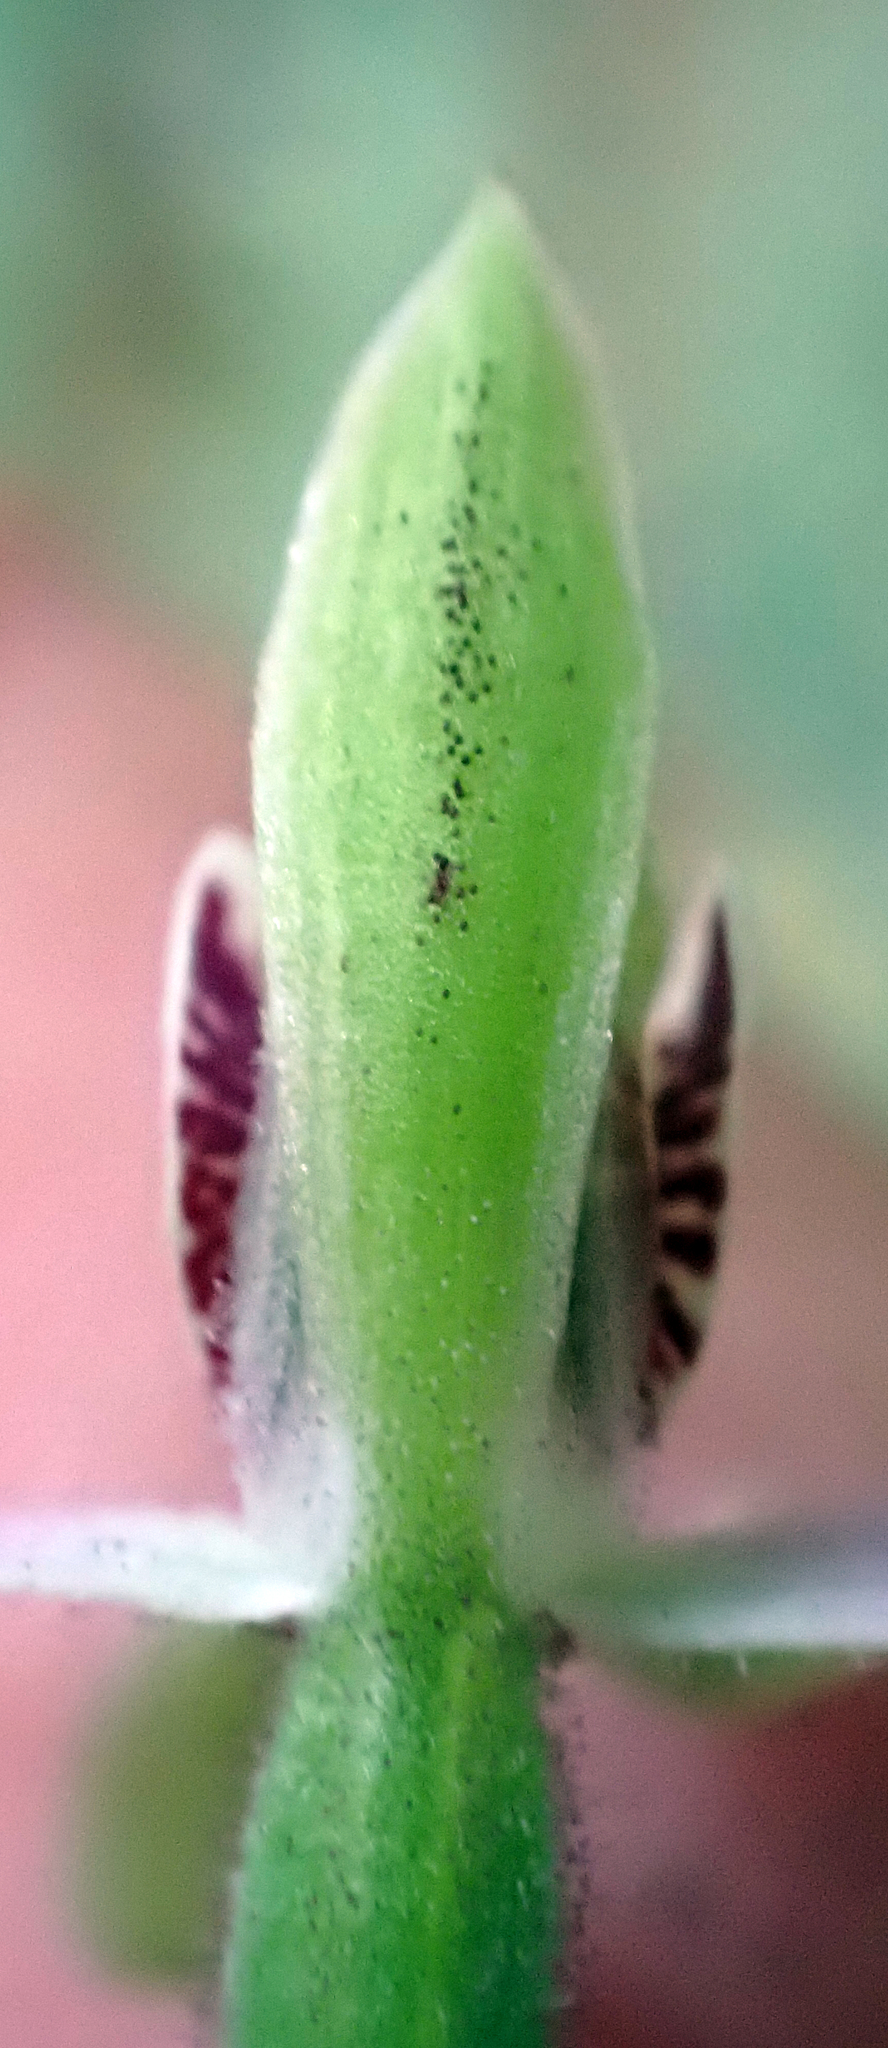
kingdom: Plantae
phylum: Tracheophyta
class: Liliopsida
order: Asparagales
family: Orchidaceae
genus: Caladenia
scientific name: Caladenia variegata
